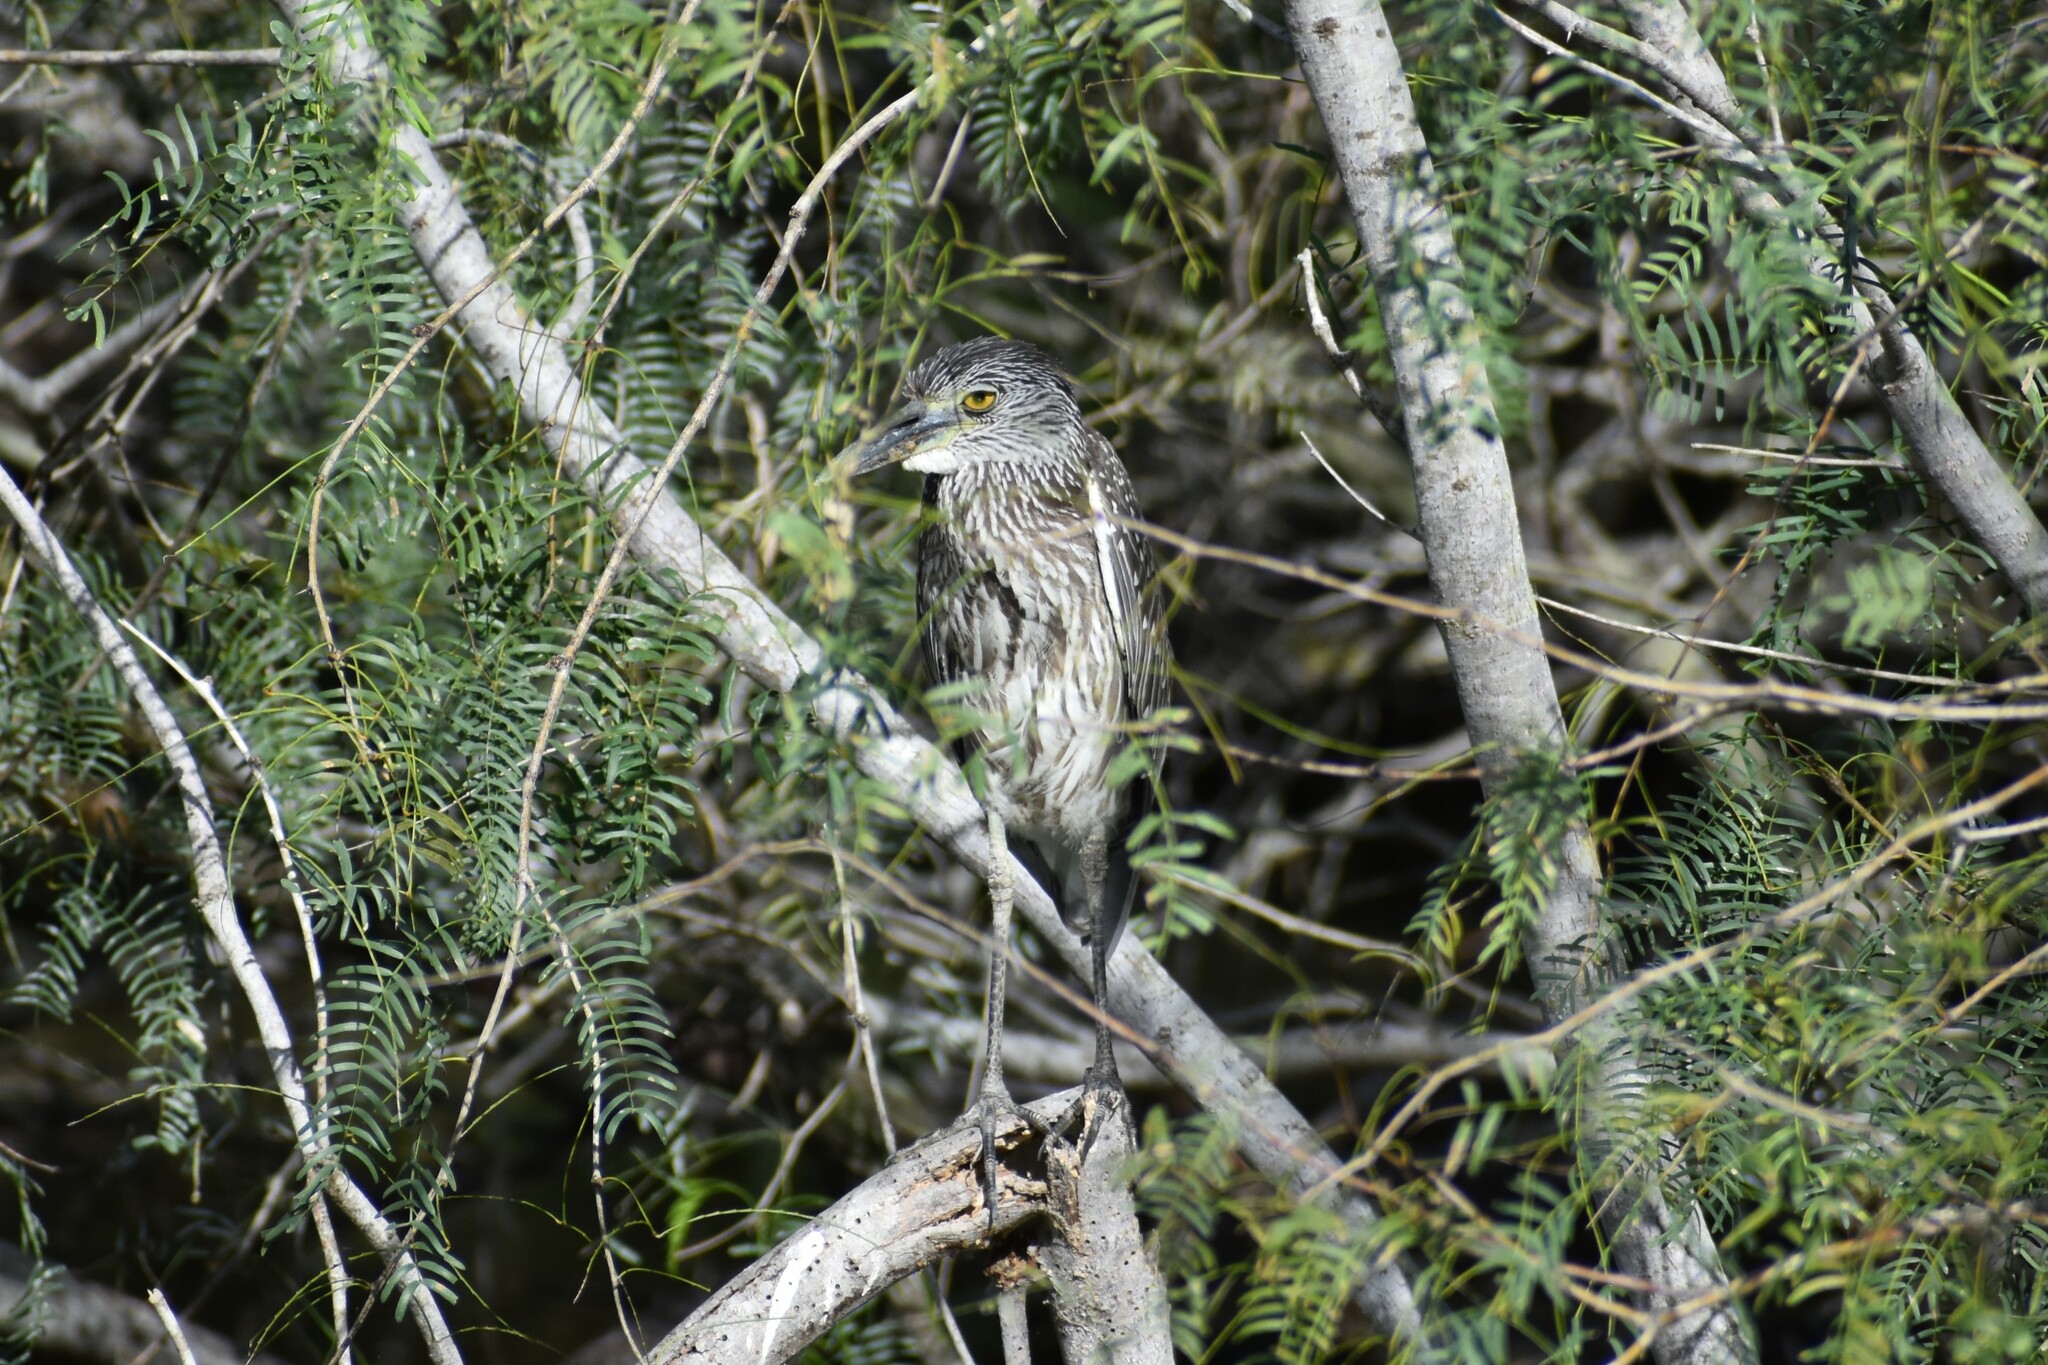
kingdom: Animalia
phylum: Chordata
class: Aves
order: Pelecaniformes
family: Ardeidae
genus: Nyctanassa
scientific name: Nyctanassa violacea
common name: Yellow-crowned night heron
